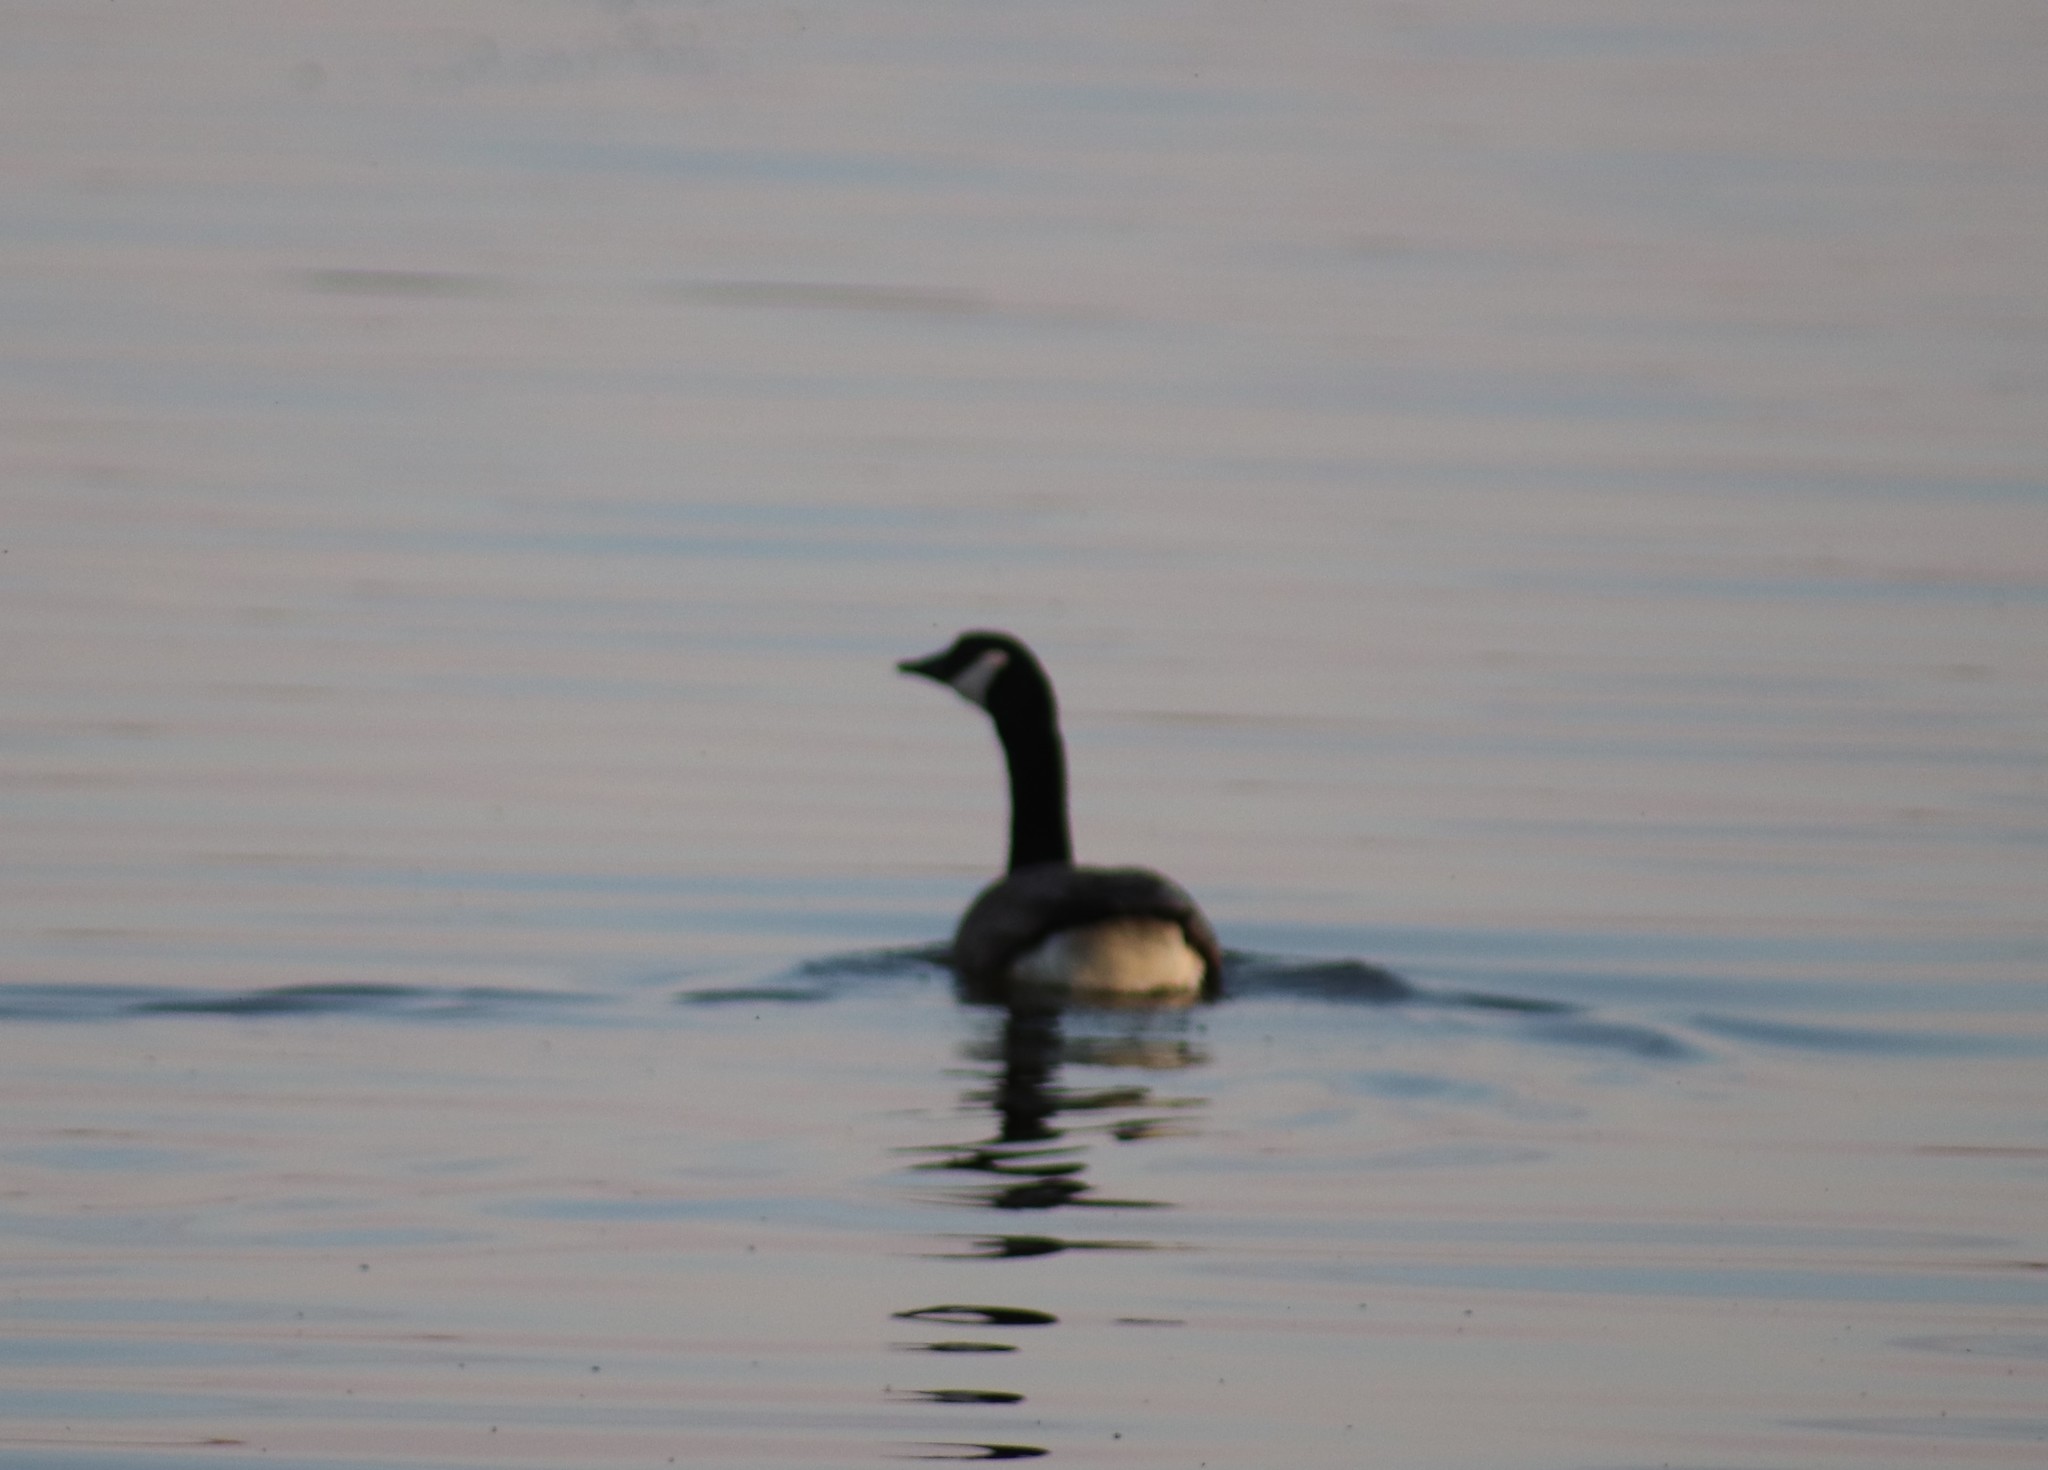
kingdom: Animalia
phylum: Chordata
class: Aves
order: Anseriformes
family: Anatidae
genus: Branta
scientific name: Branta canadensis
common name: Canada goose
